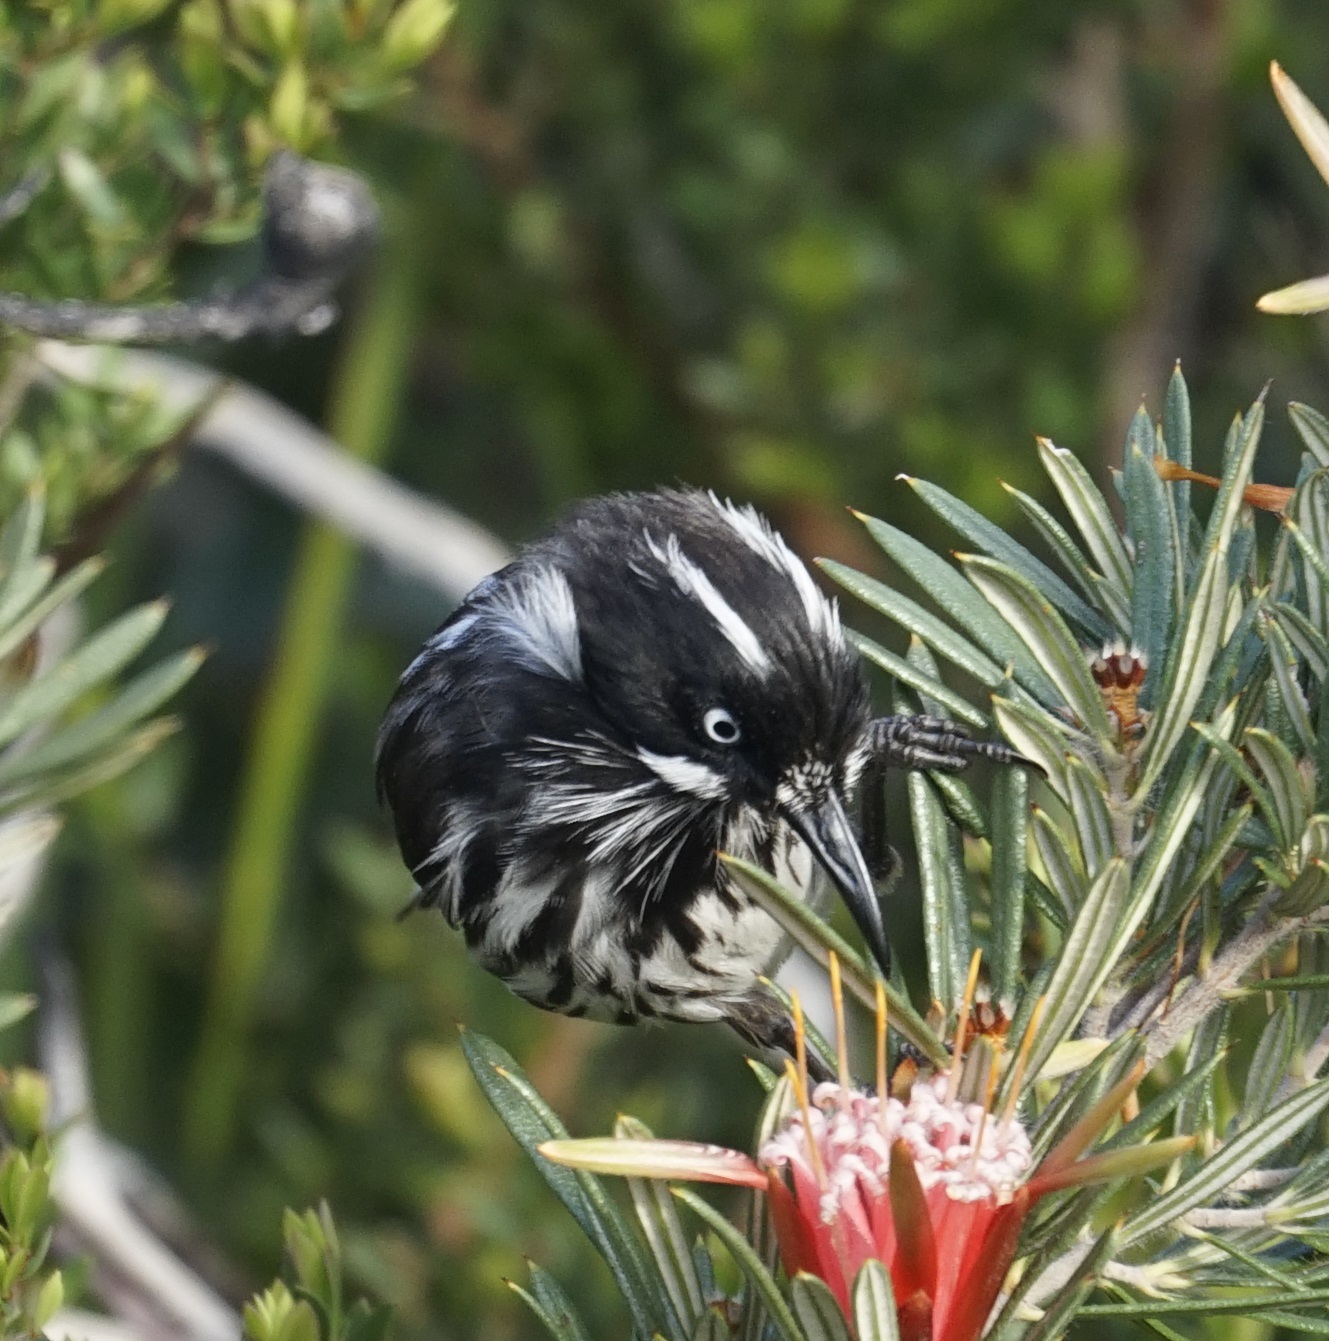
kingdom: Animalia
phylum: Chordata
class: Aves
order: Passeriformes
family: Meliphagidae
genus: Phylidonyris
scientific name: Phylidonyris novaehollandiae
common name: New holland honeyeater
